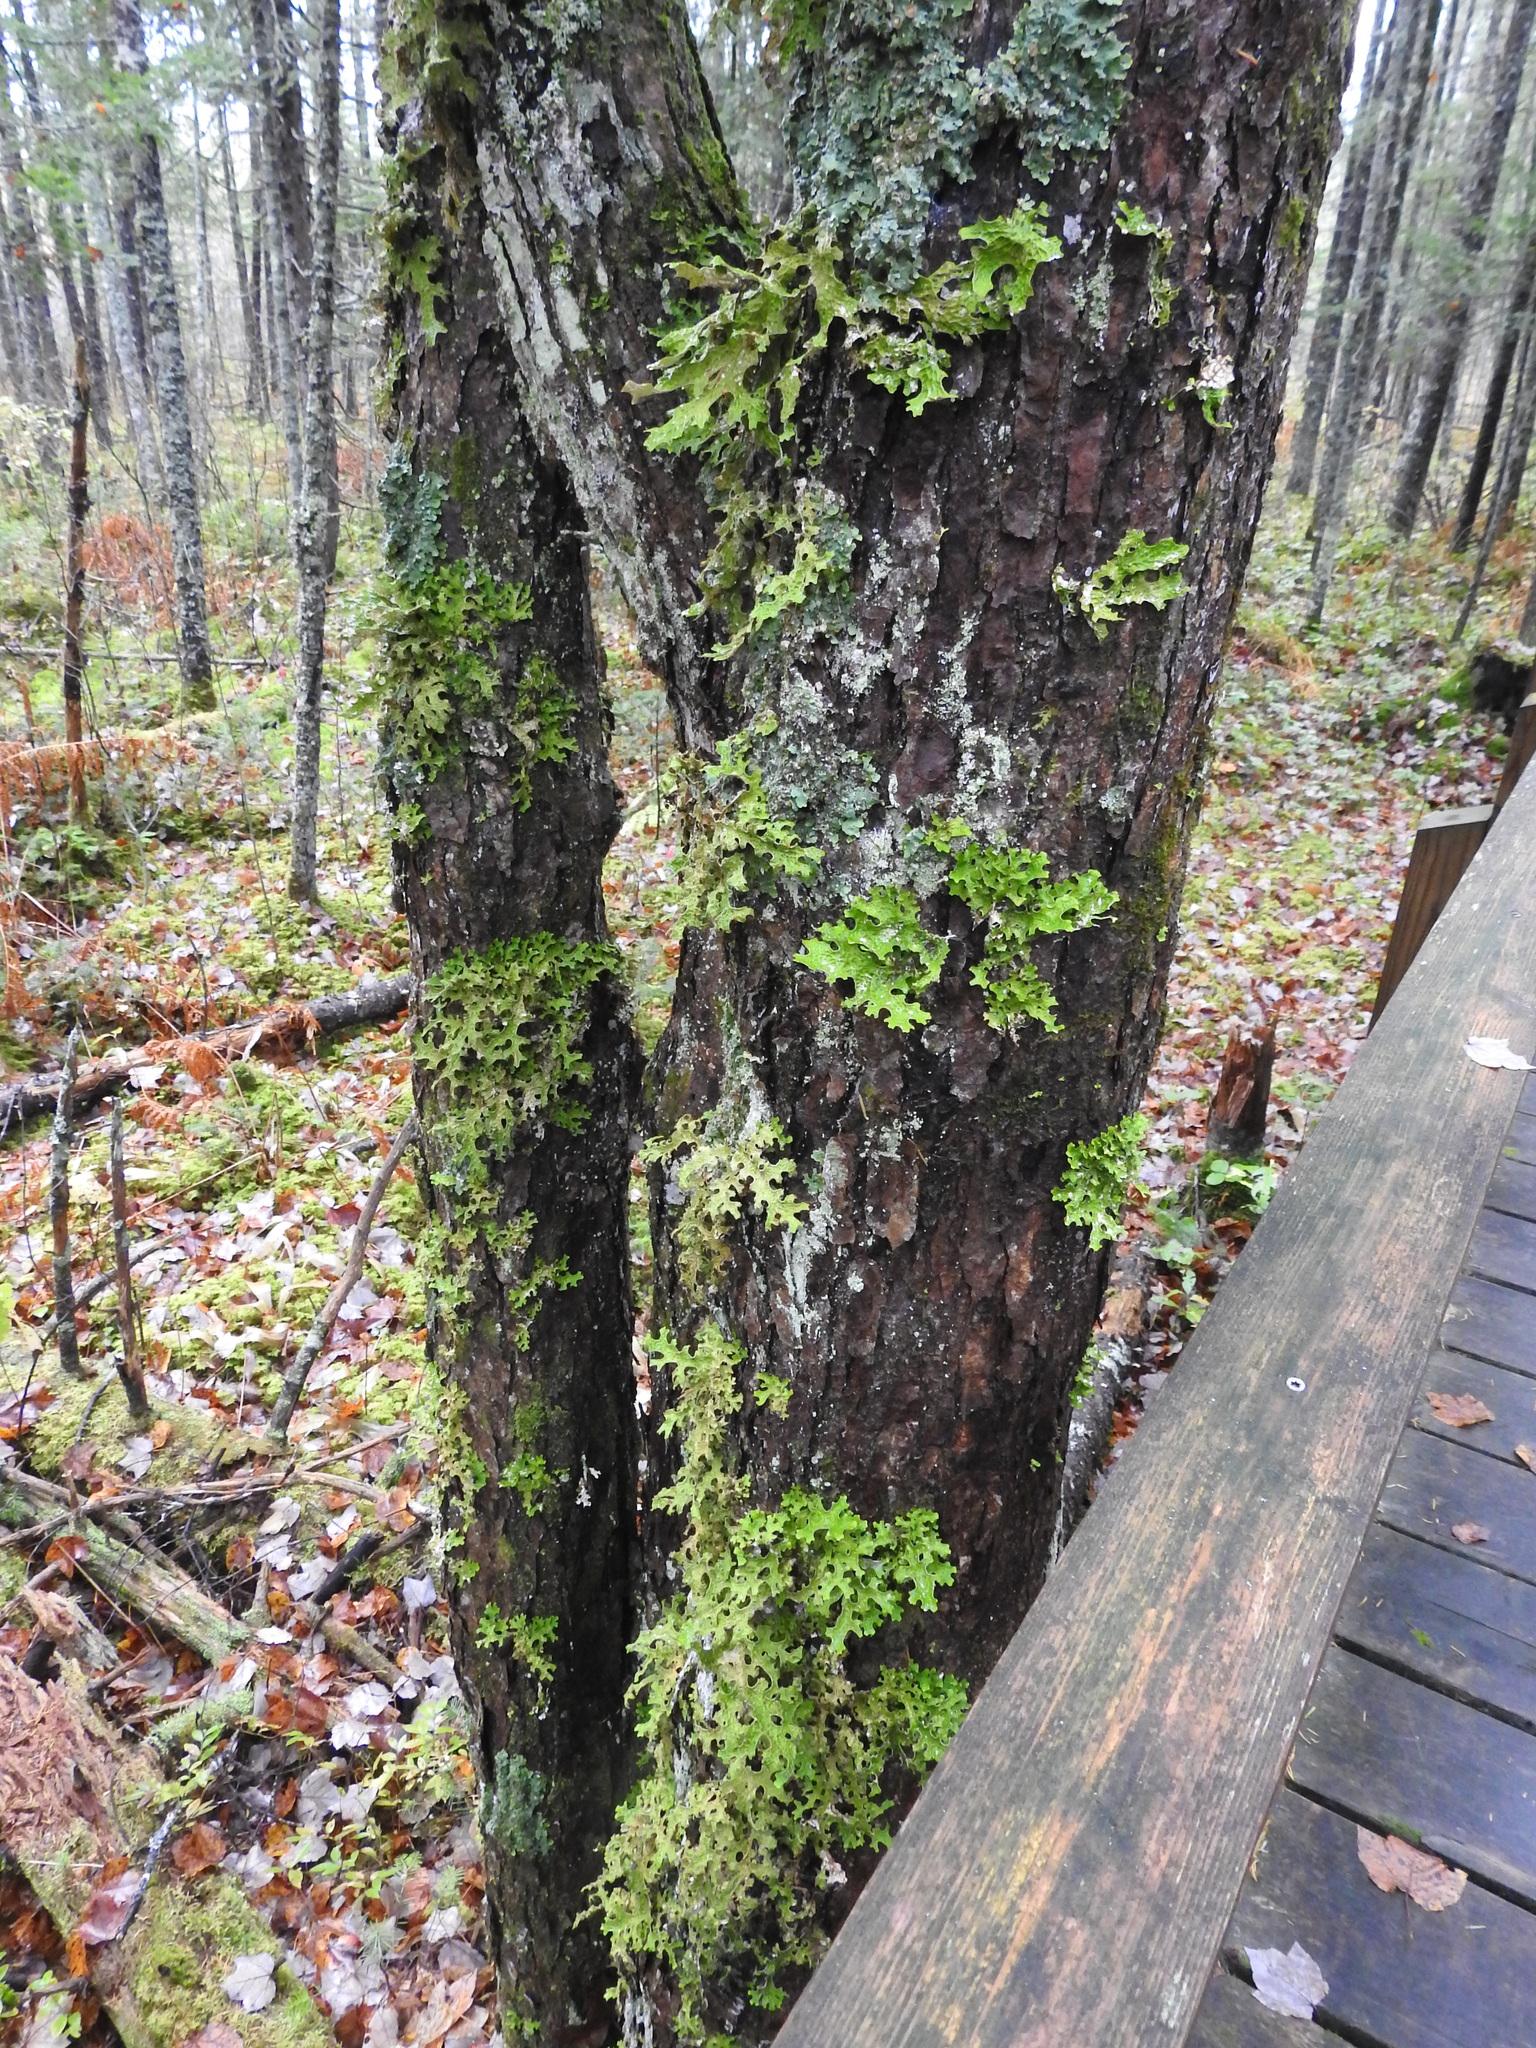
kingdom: Fungi
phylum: Ascomycota
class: Lecanoromycetes
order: Peltigerales
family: Lobariaceae
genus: Lobaria
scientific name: Lobaria pulmonaria
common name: Lungwort
